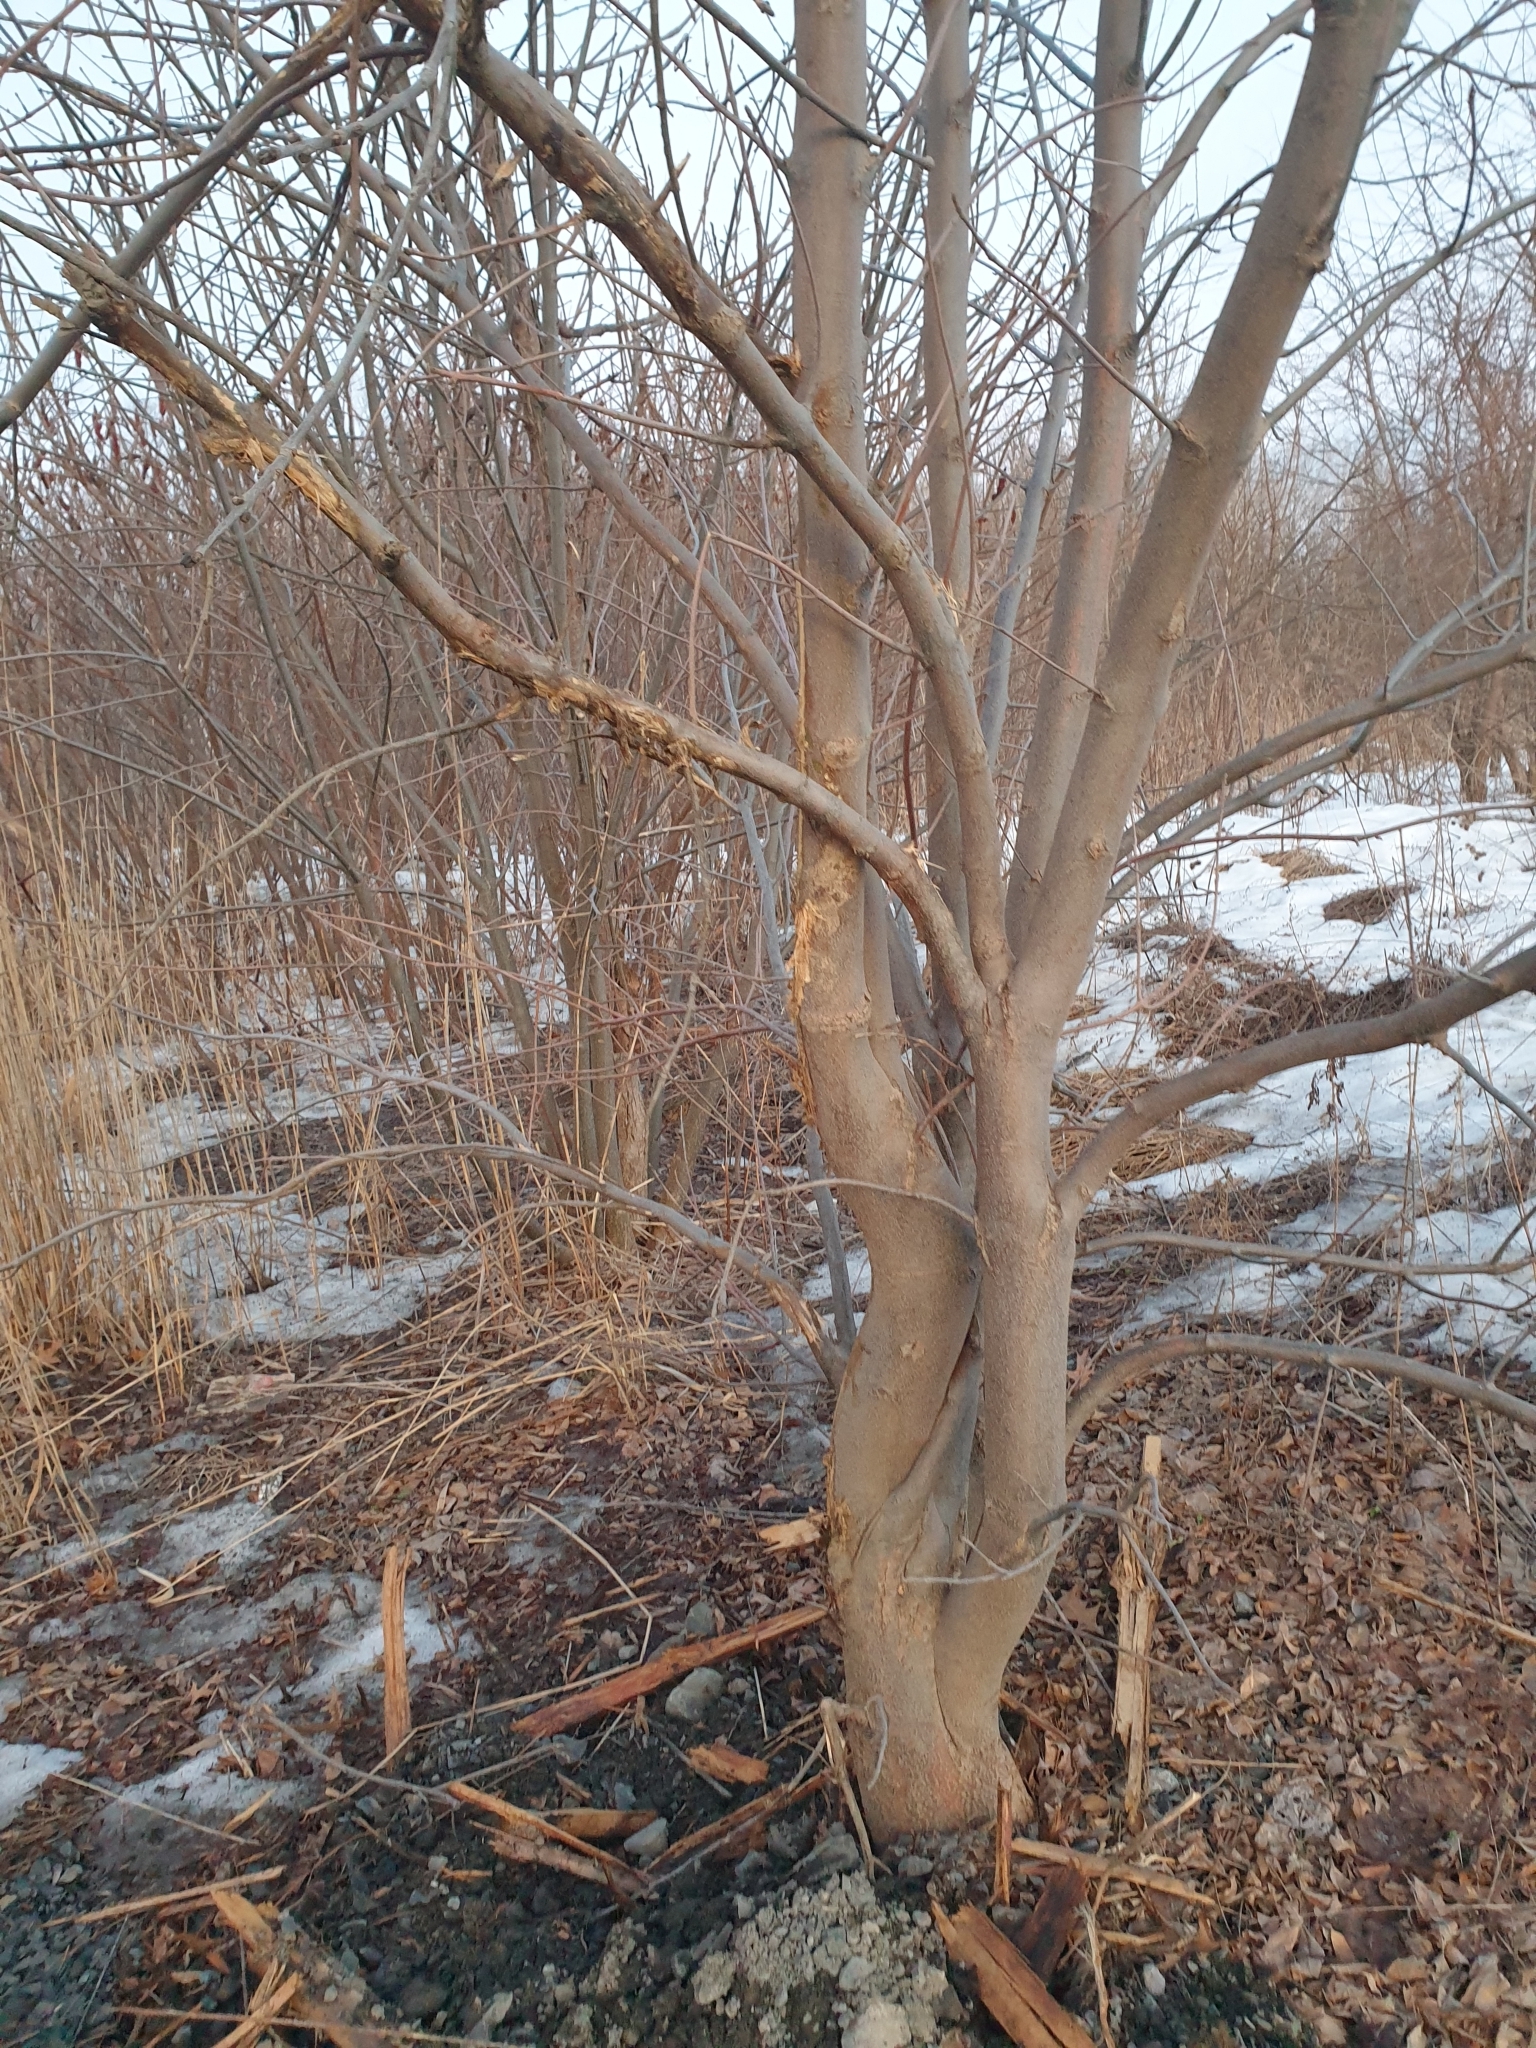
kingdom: Plantae
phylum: Tracheophyta
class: Magnoliopsida
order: Lamiales
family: Oleaceae
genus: Fraxinus
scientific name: Fraxinus pennsylvanica
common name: Green ash
